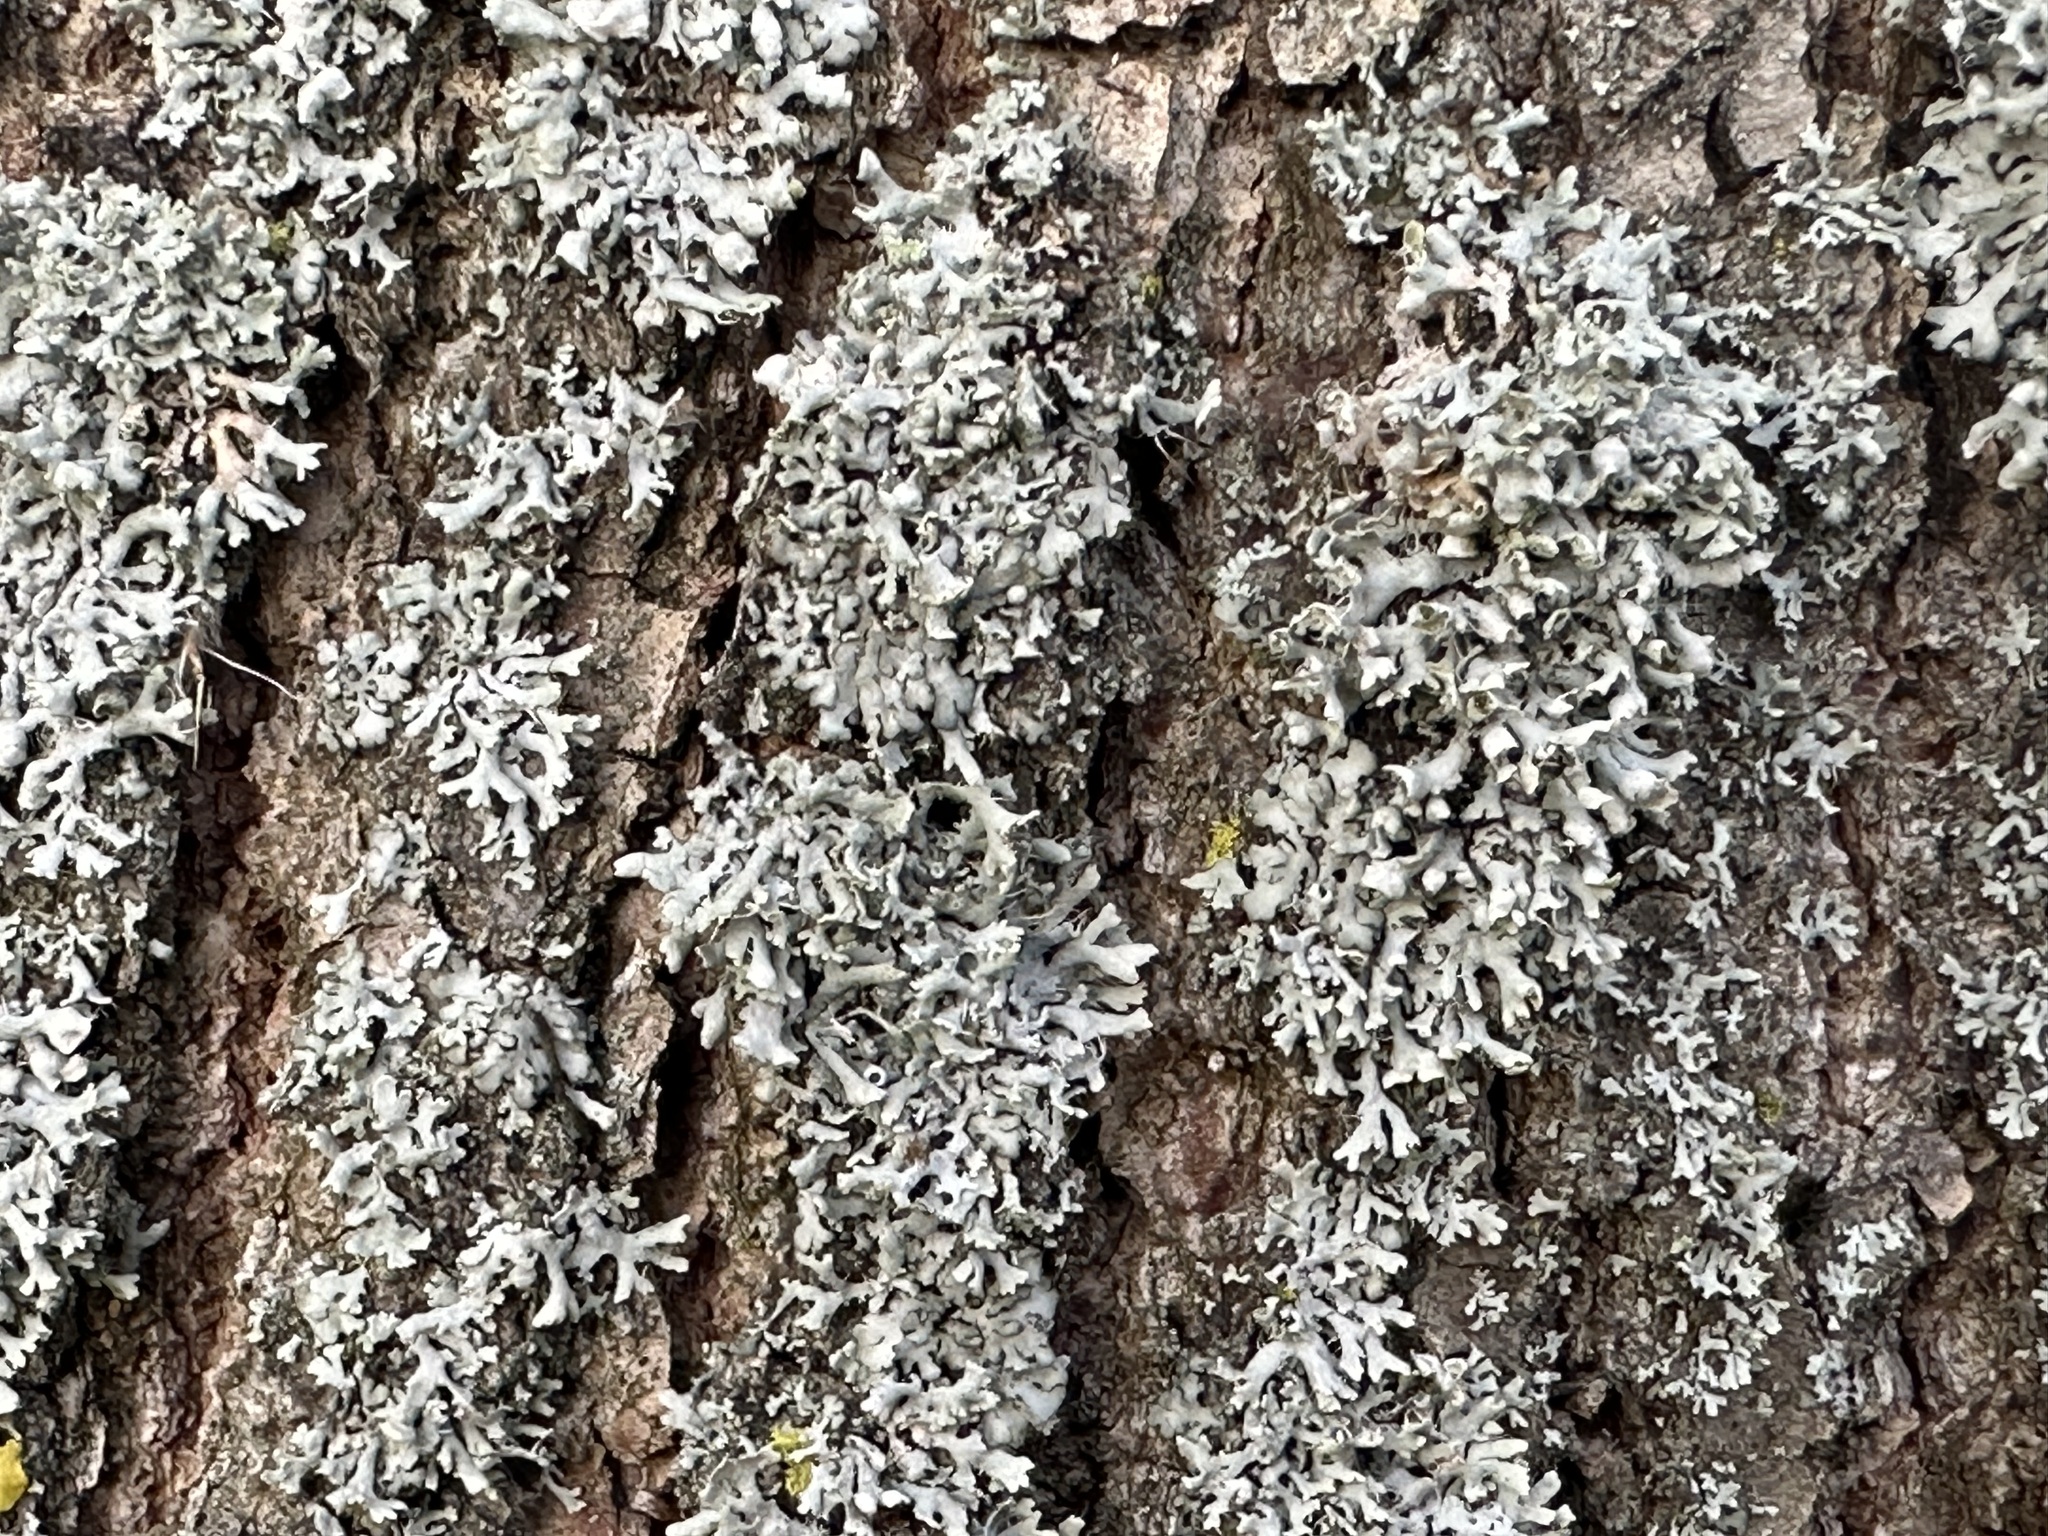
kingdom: Fungi
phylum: Ascomycota
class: Lecanoromycetes
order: Caliciales
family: Physciaceae
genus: Physcia
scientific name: Physcia adscendens
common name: Hooded rosette lichen
